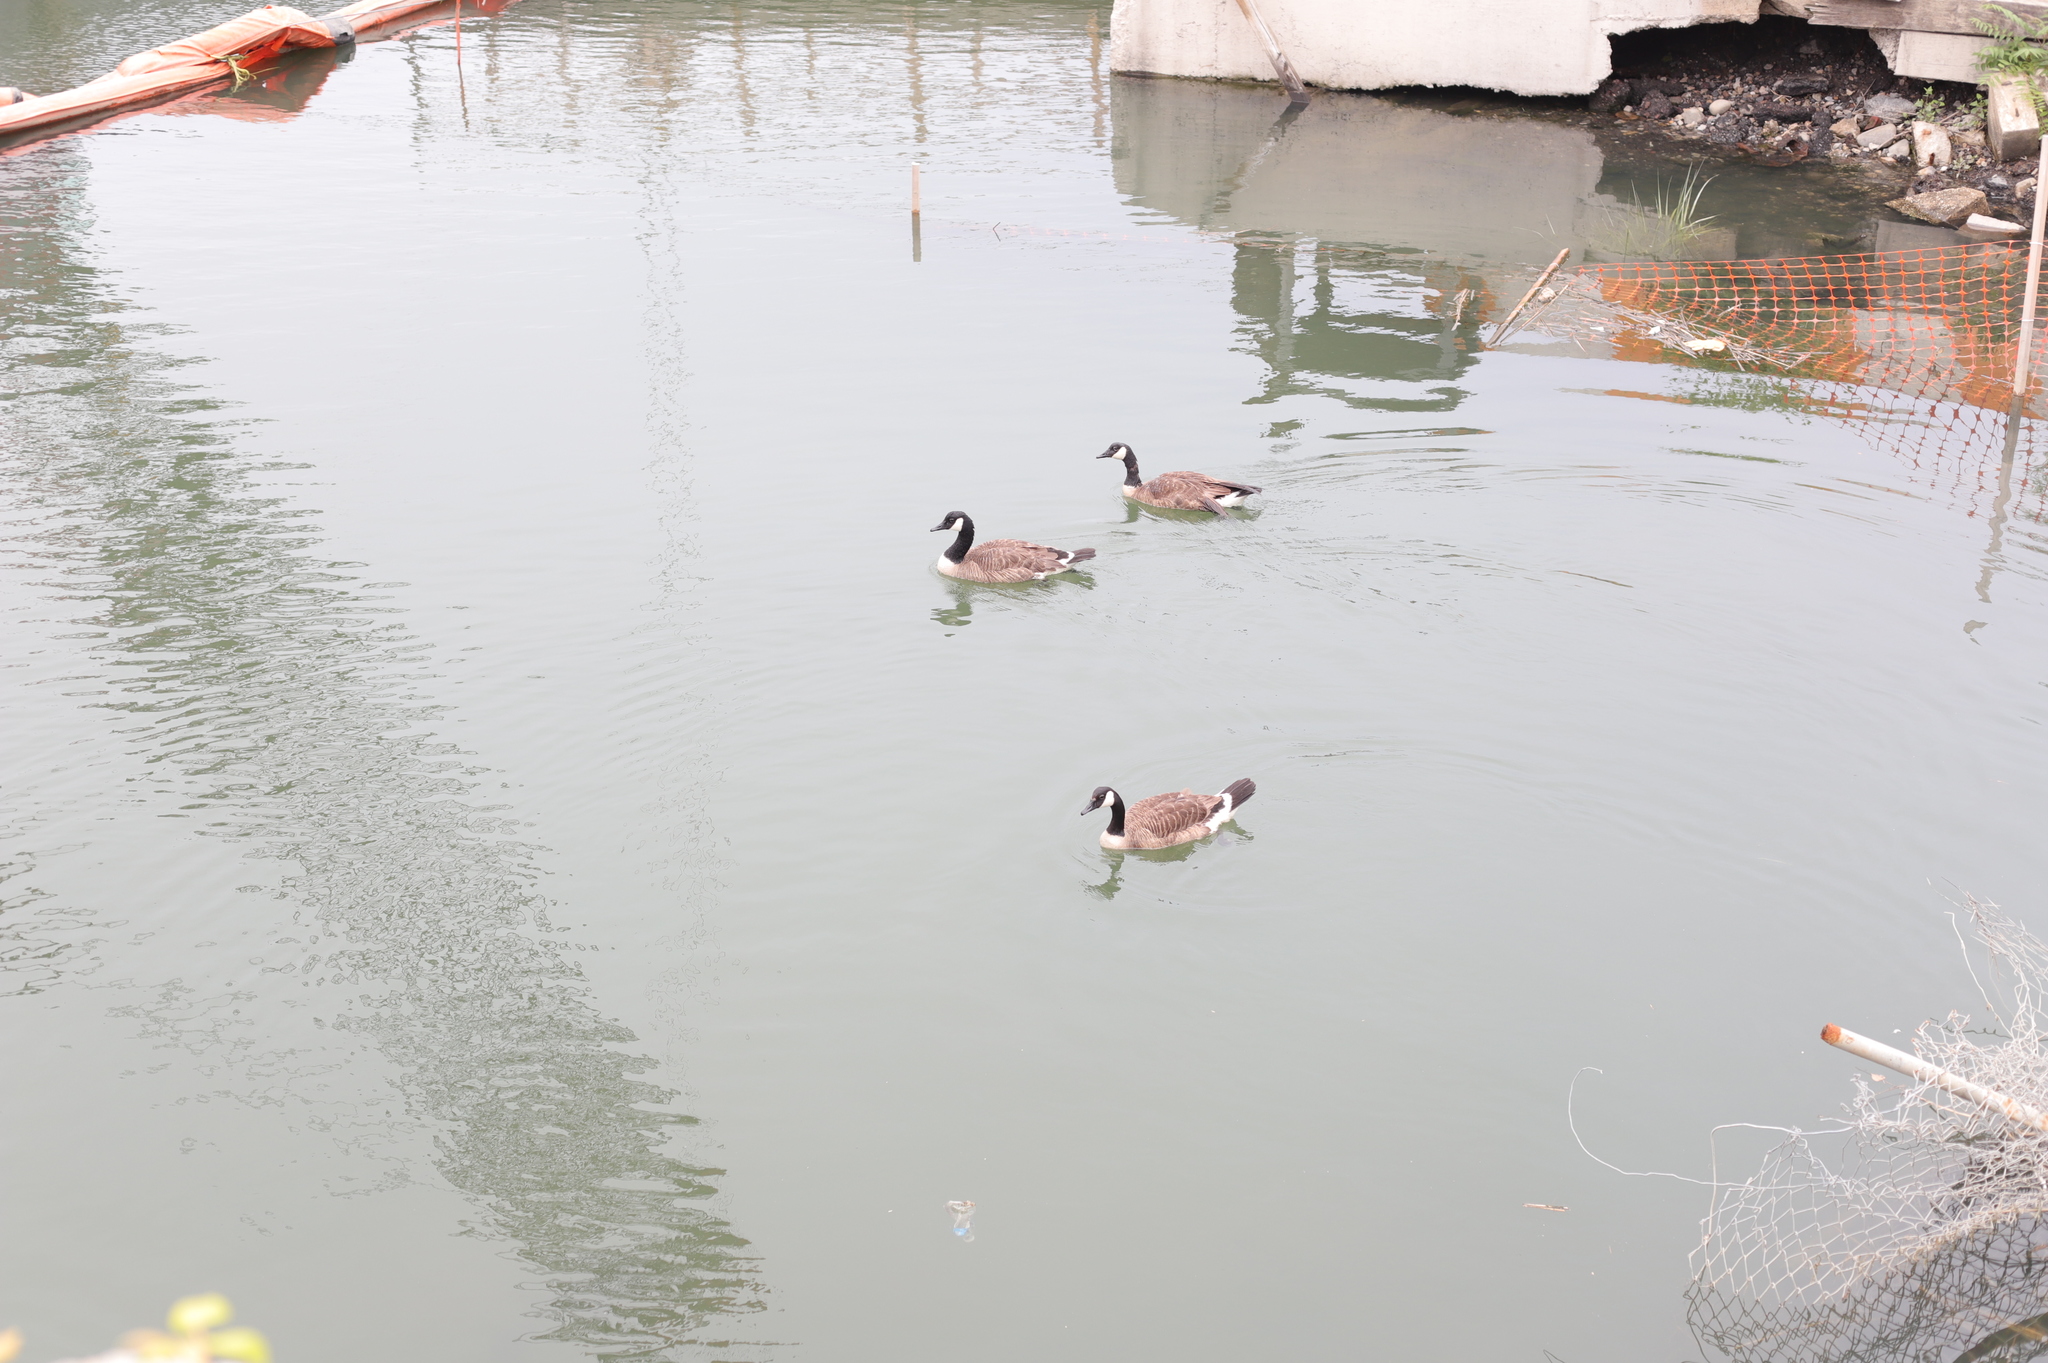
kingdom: Animalia
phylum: Chordata
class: Aves
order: Anseriformes
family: Anatidae
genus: Branta
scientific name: Branta canadensis
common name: Canada goose
